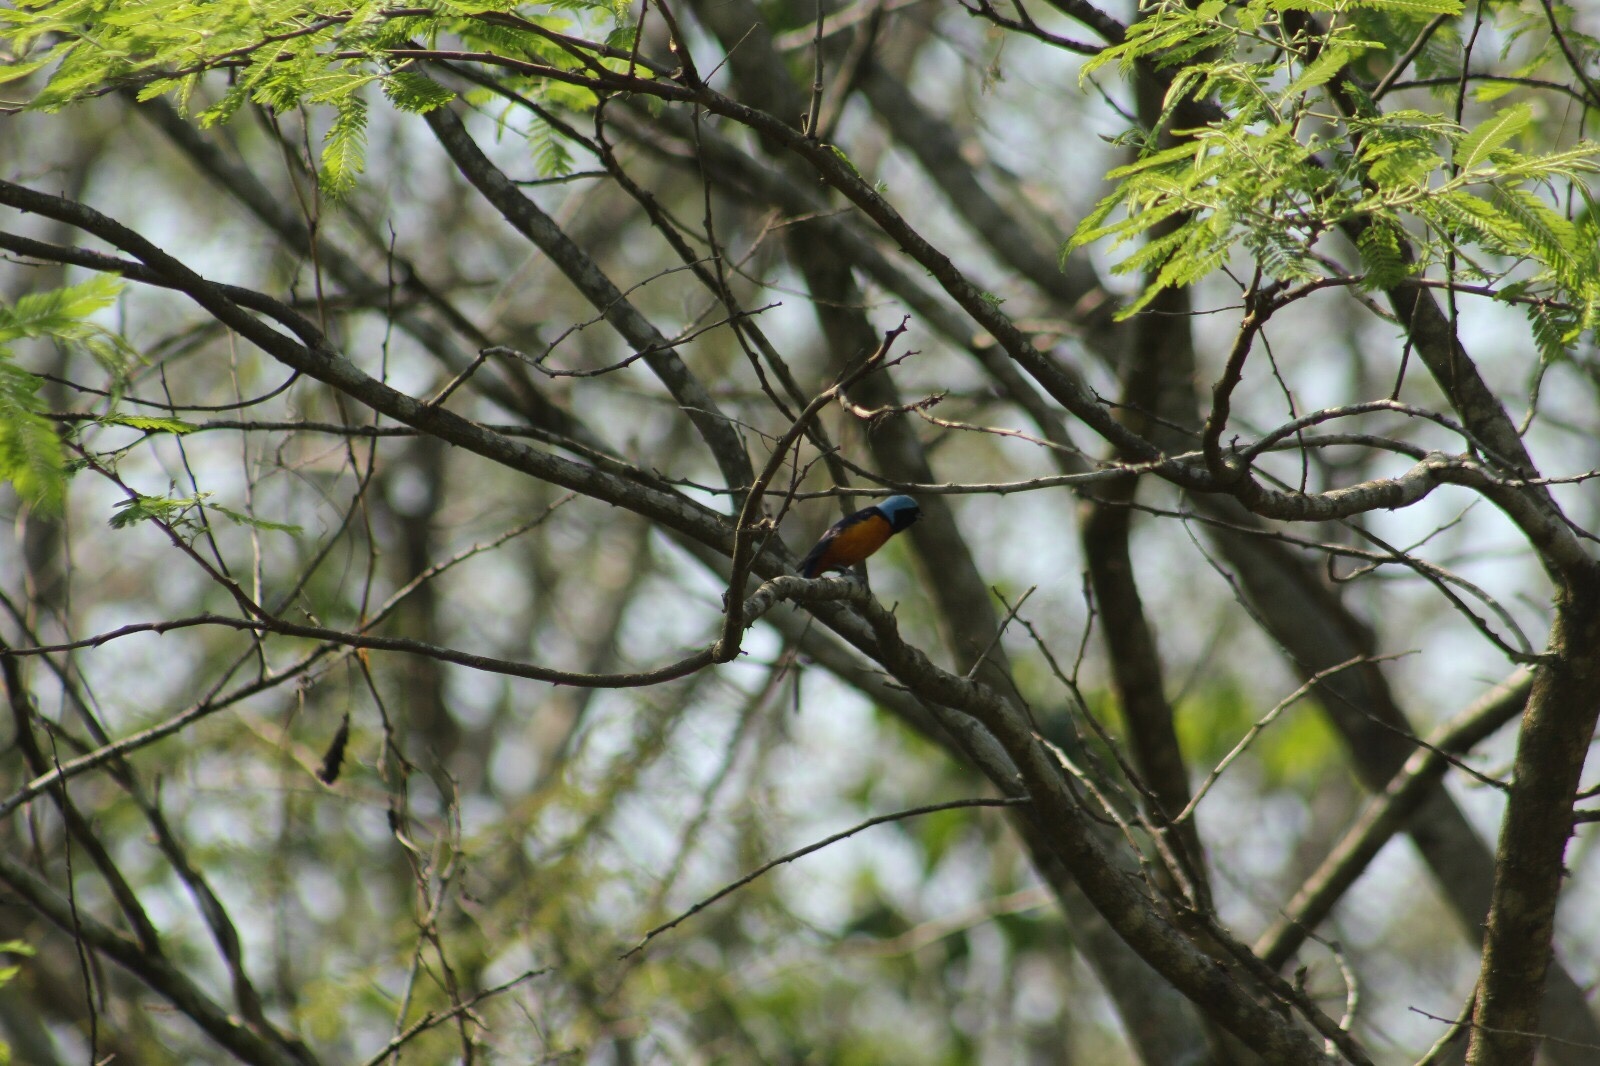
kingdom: Animalia
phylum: Chordata
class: Aves
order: Passeriformes
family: Fringillidae
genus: Euphonia
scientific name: Euphonia elegantissima
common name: Elegant euphonia
